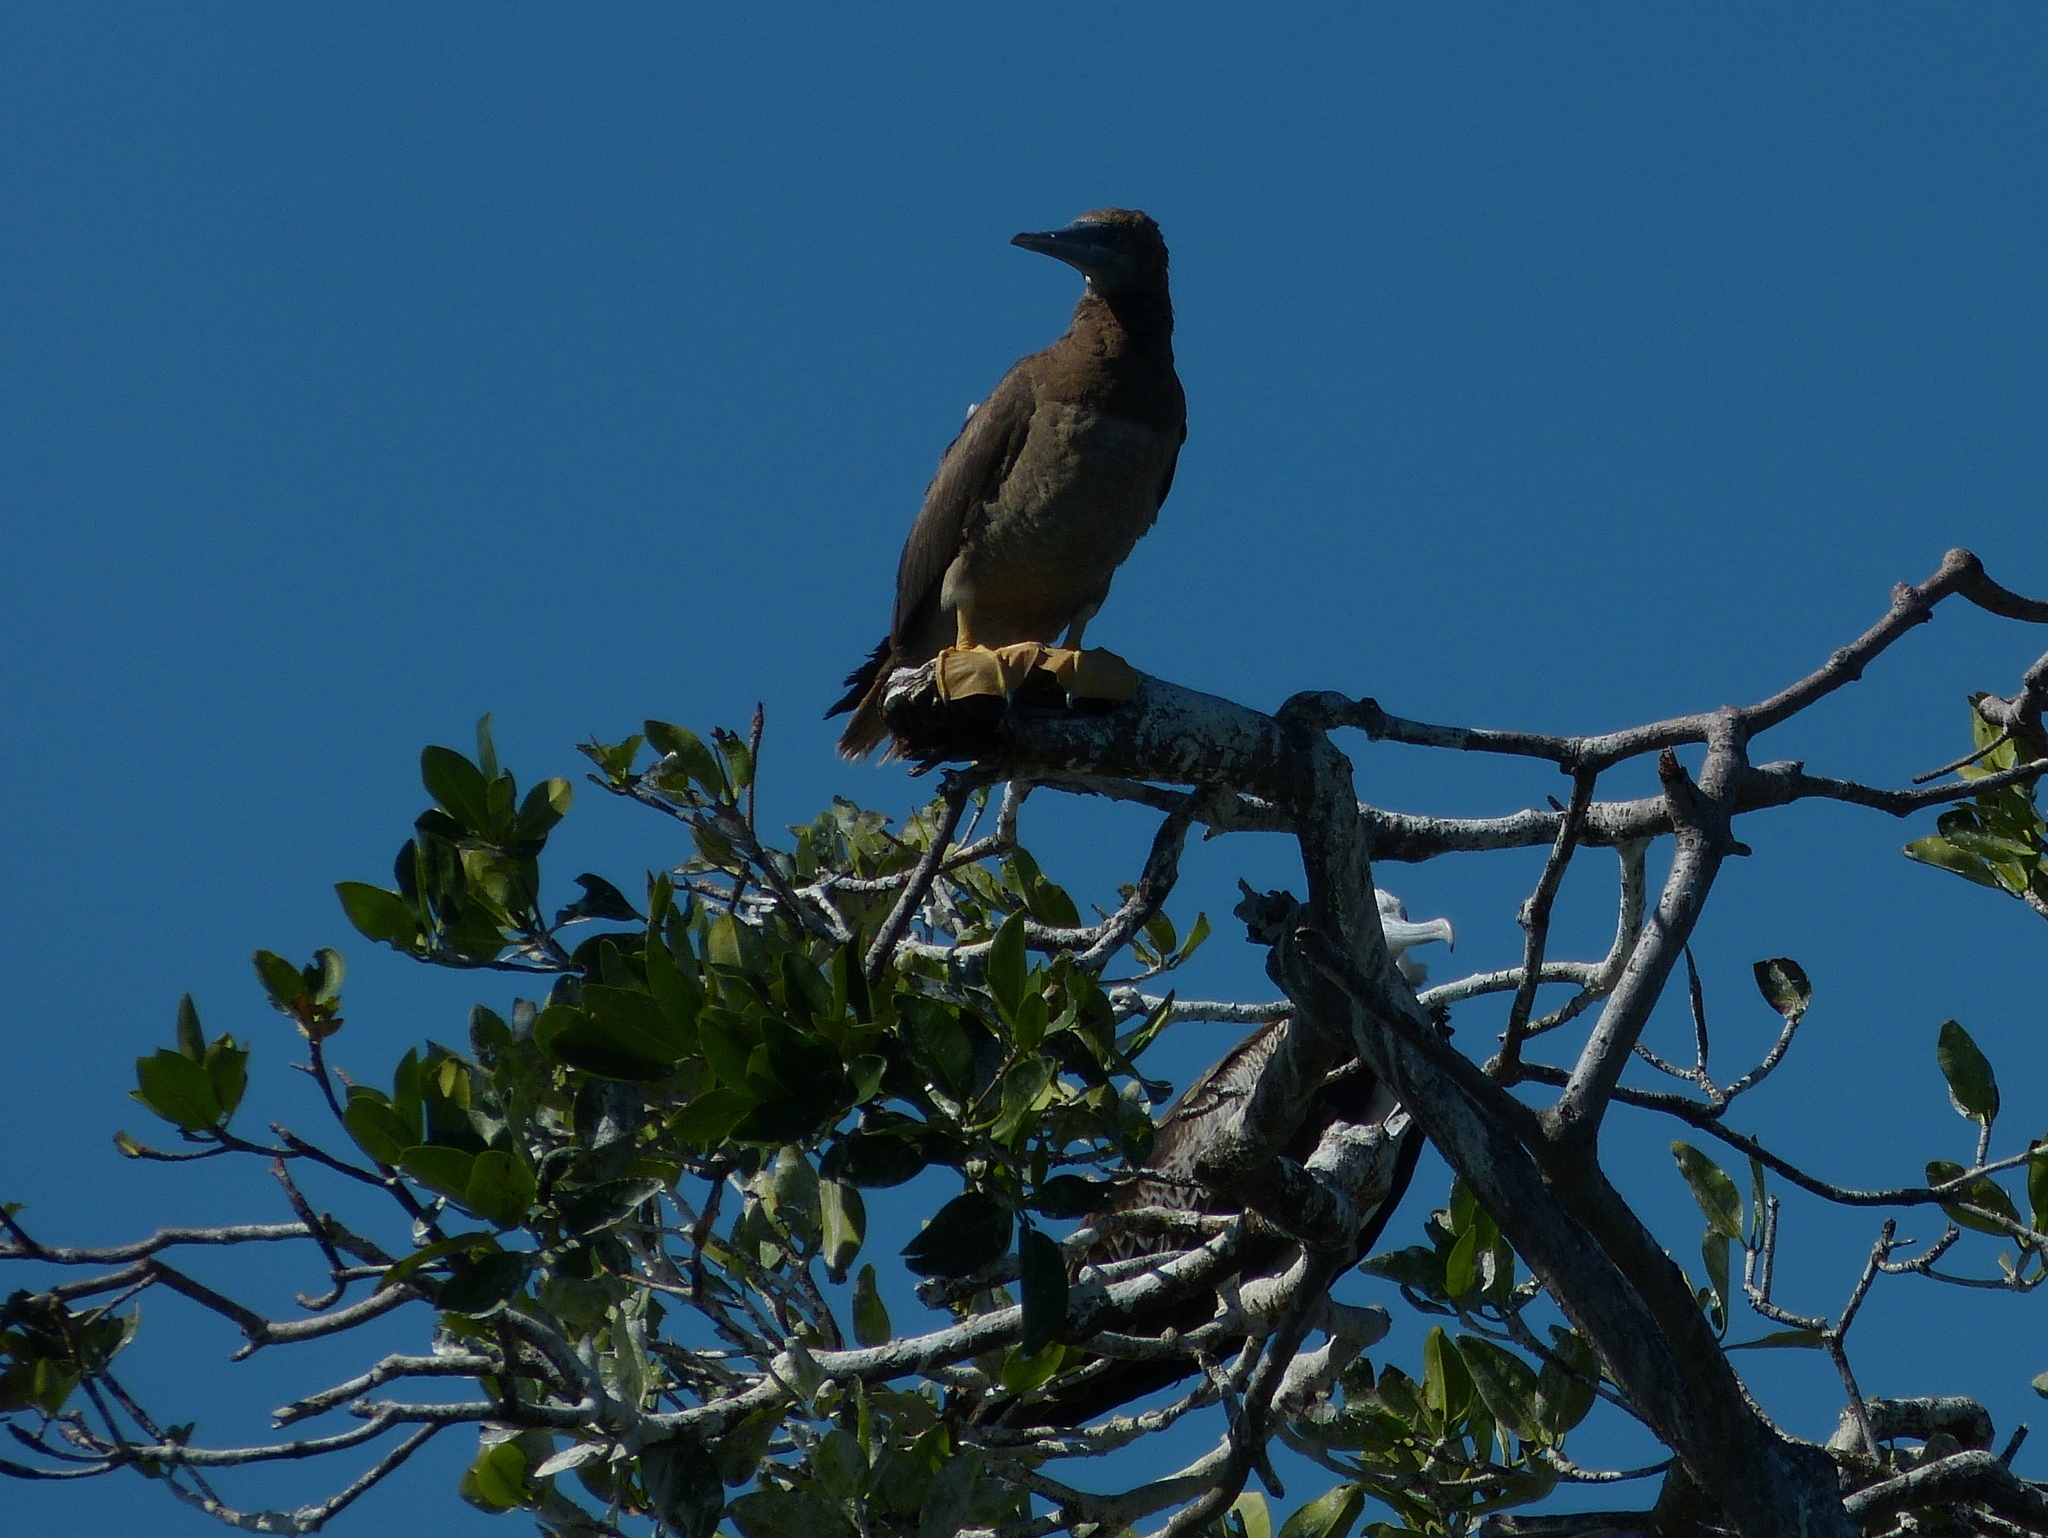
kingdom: Animalia
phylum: Chordata
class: Aves
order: Suliformes
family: Sulidae
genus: Sula
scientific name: Sula leucogaster
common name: Brown booby
